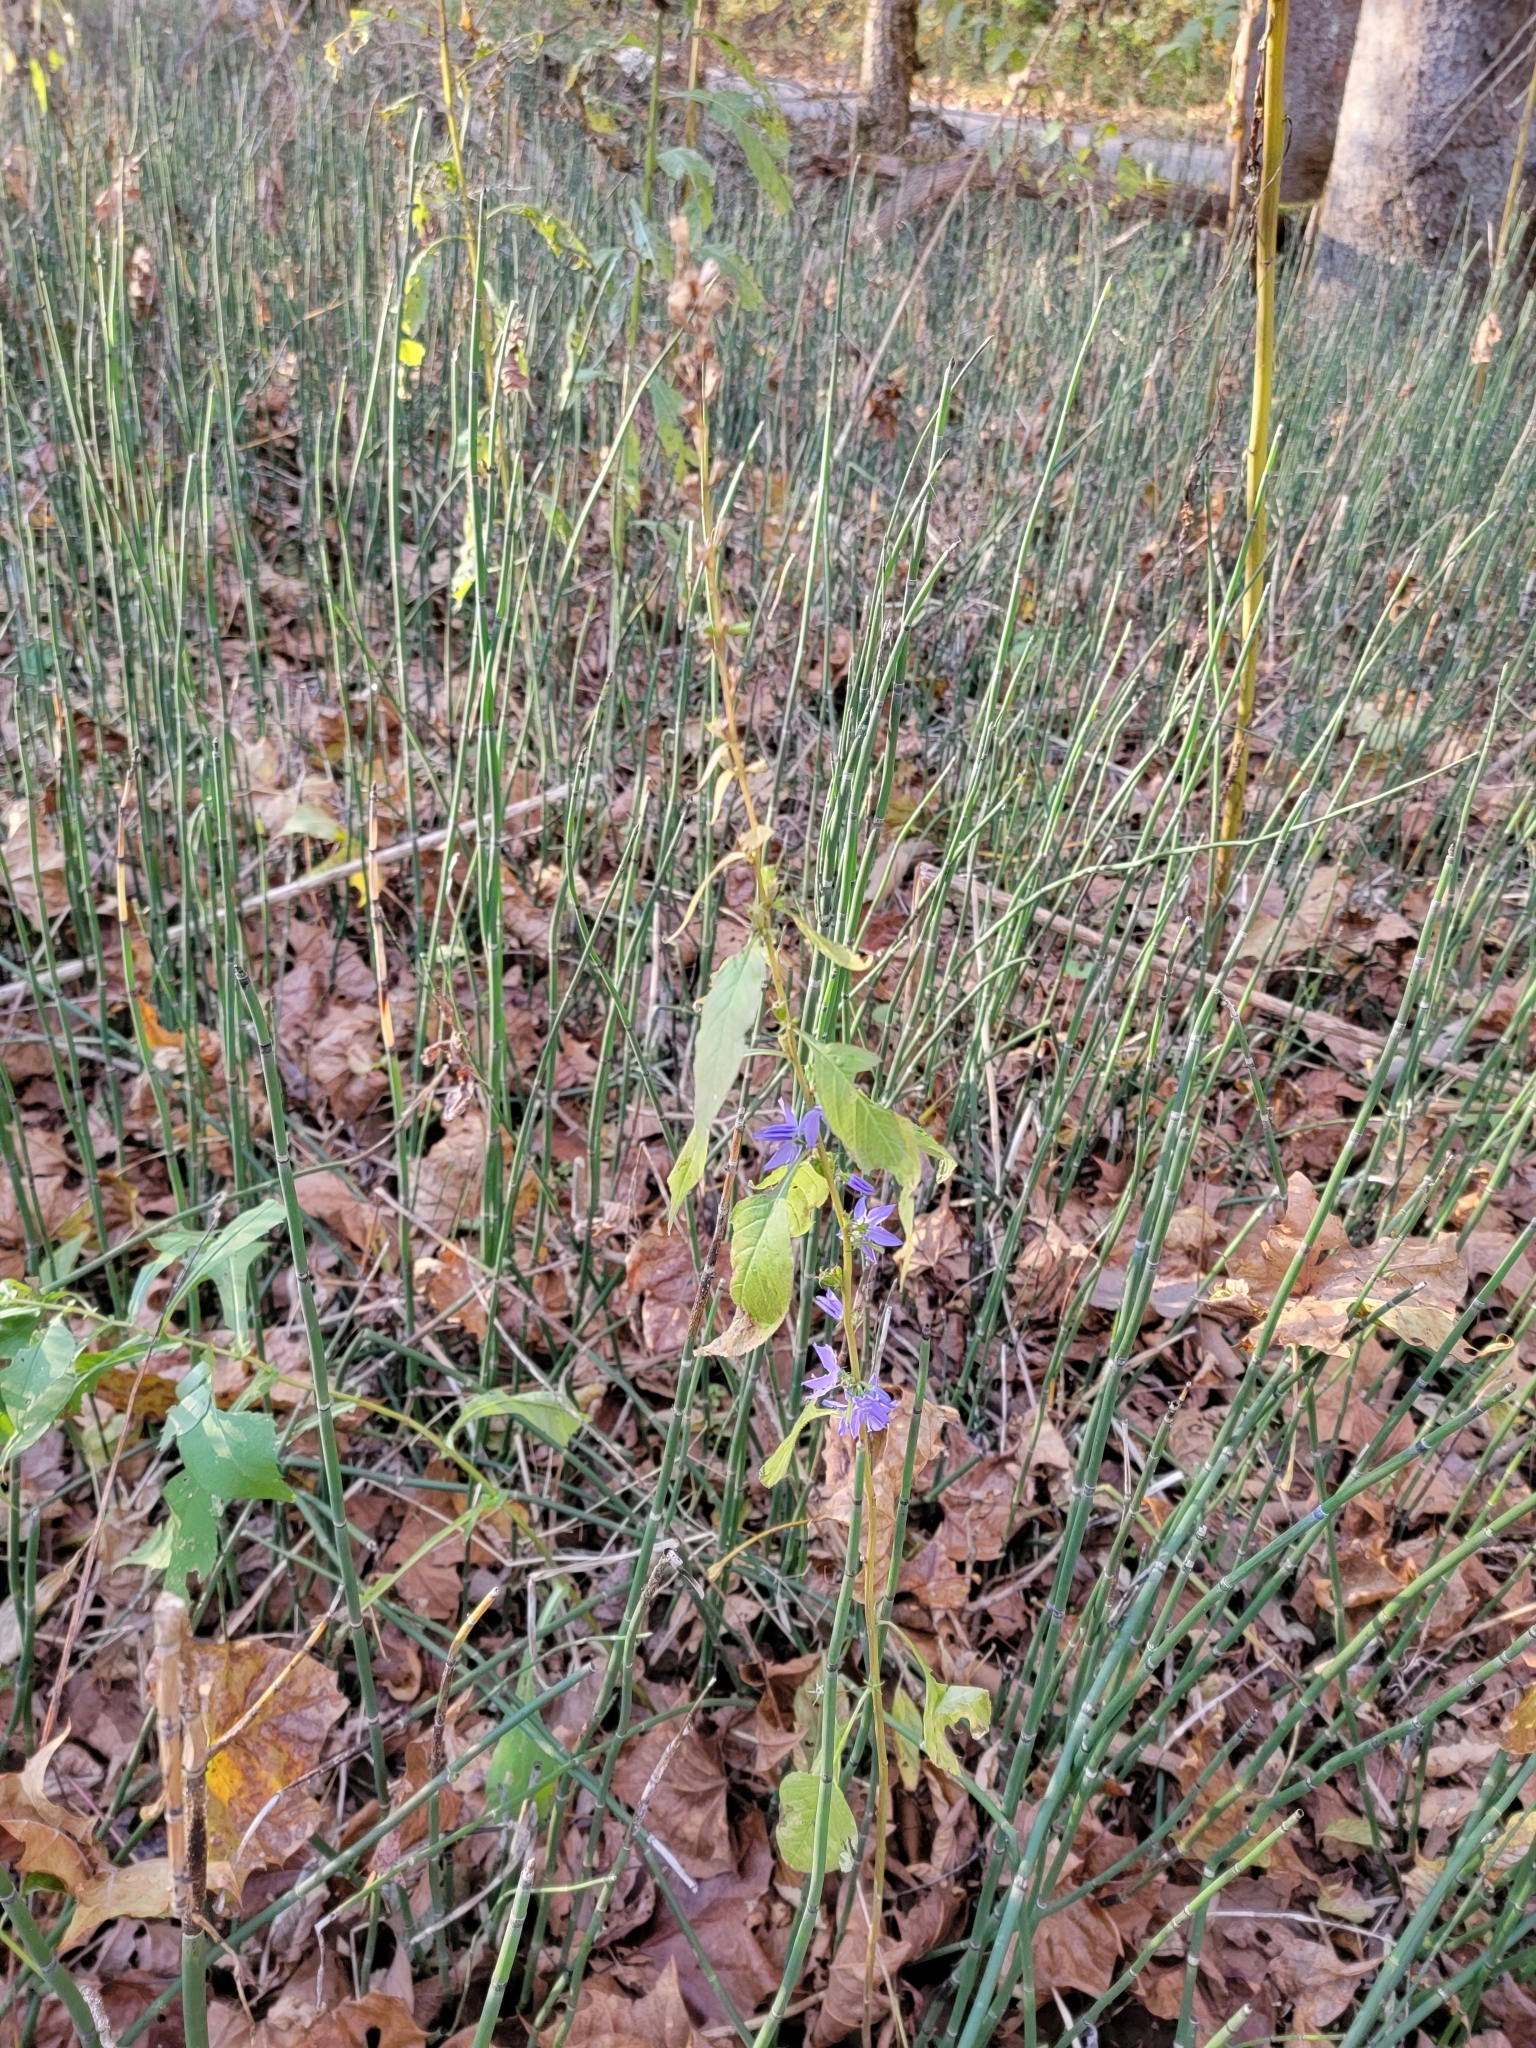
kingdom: Plantae
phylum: Tracheophyta
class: Magnoliopsida
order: Asterales
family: Campanulaceae
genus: Campanulastrum
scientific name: Campanulastrum americanum
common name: American bellflower
